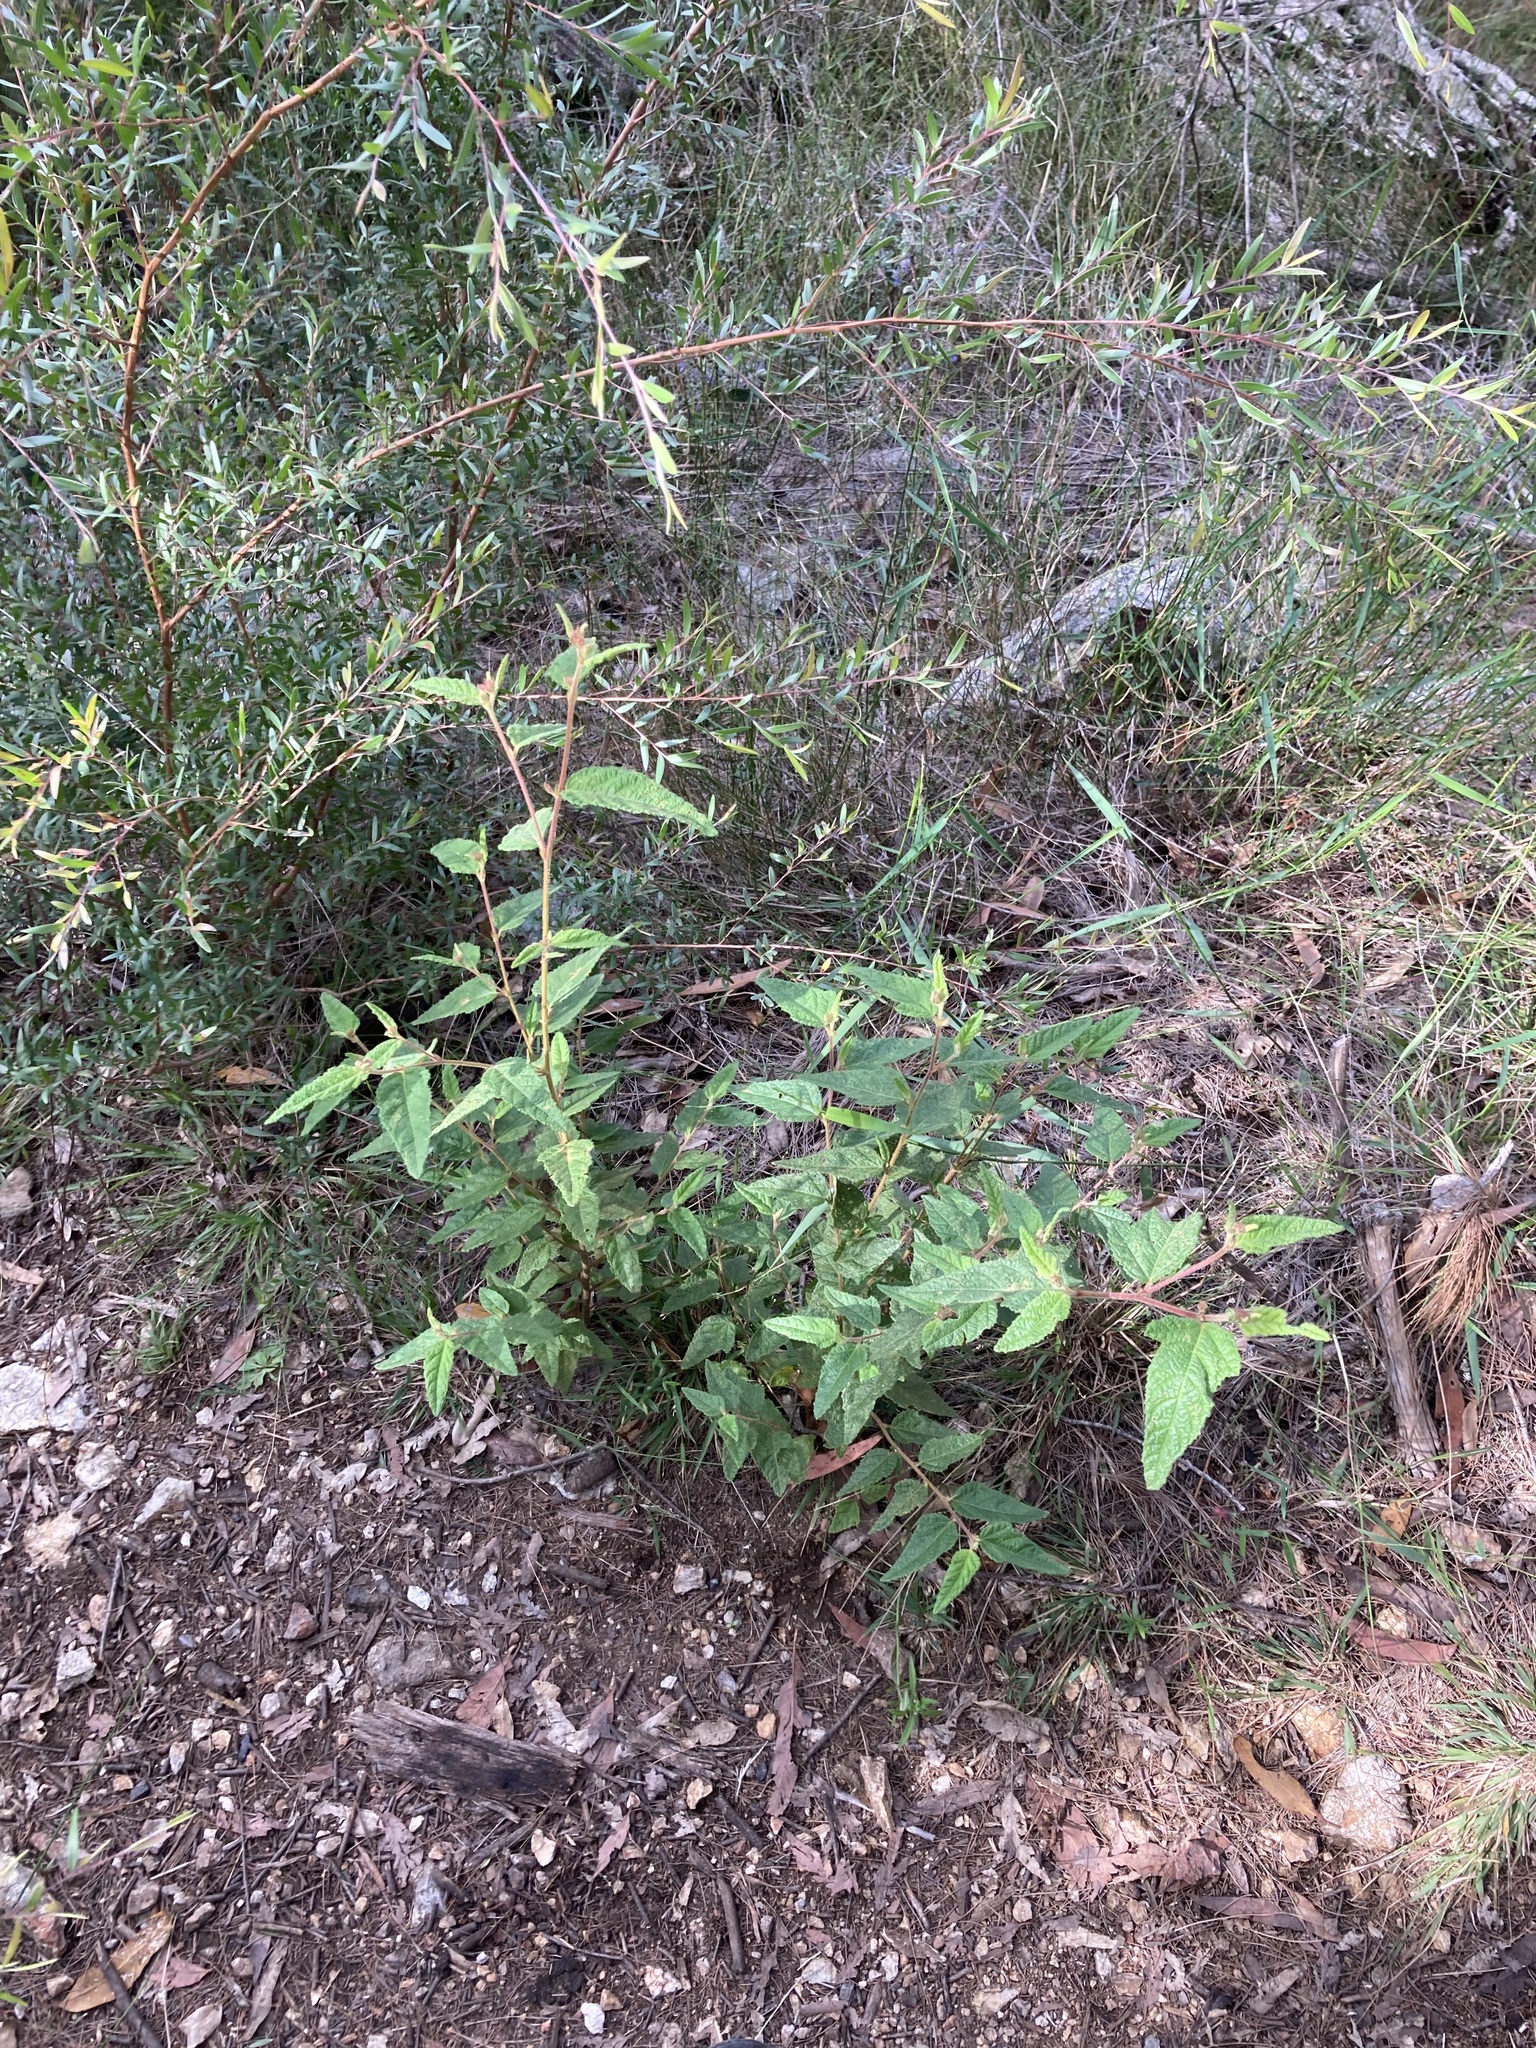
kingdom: Plantae
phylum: Tracheophyta
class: Magnoliopsida
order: Malvales
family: Malvaceae
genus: Commersonia
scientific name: Commersonia dasyphylla
